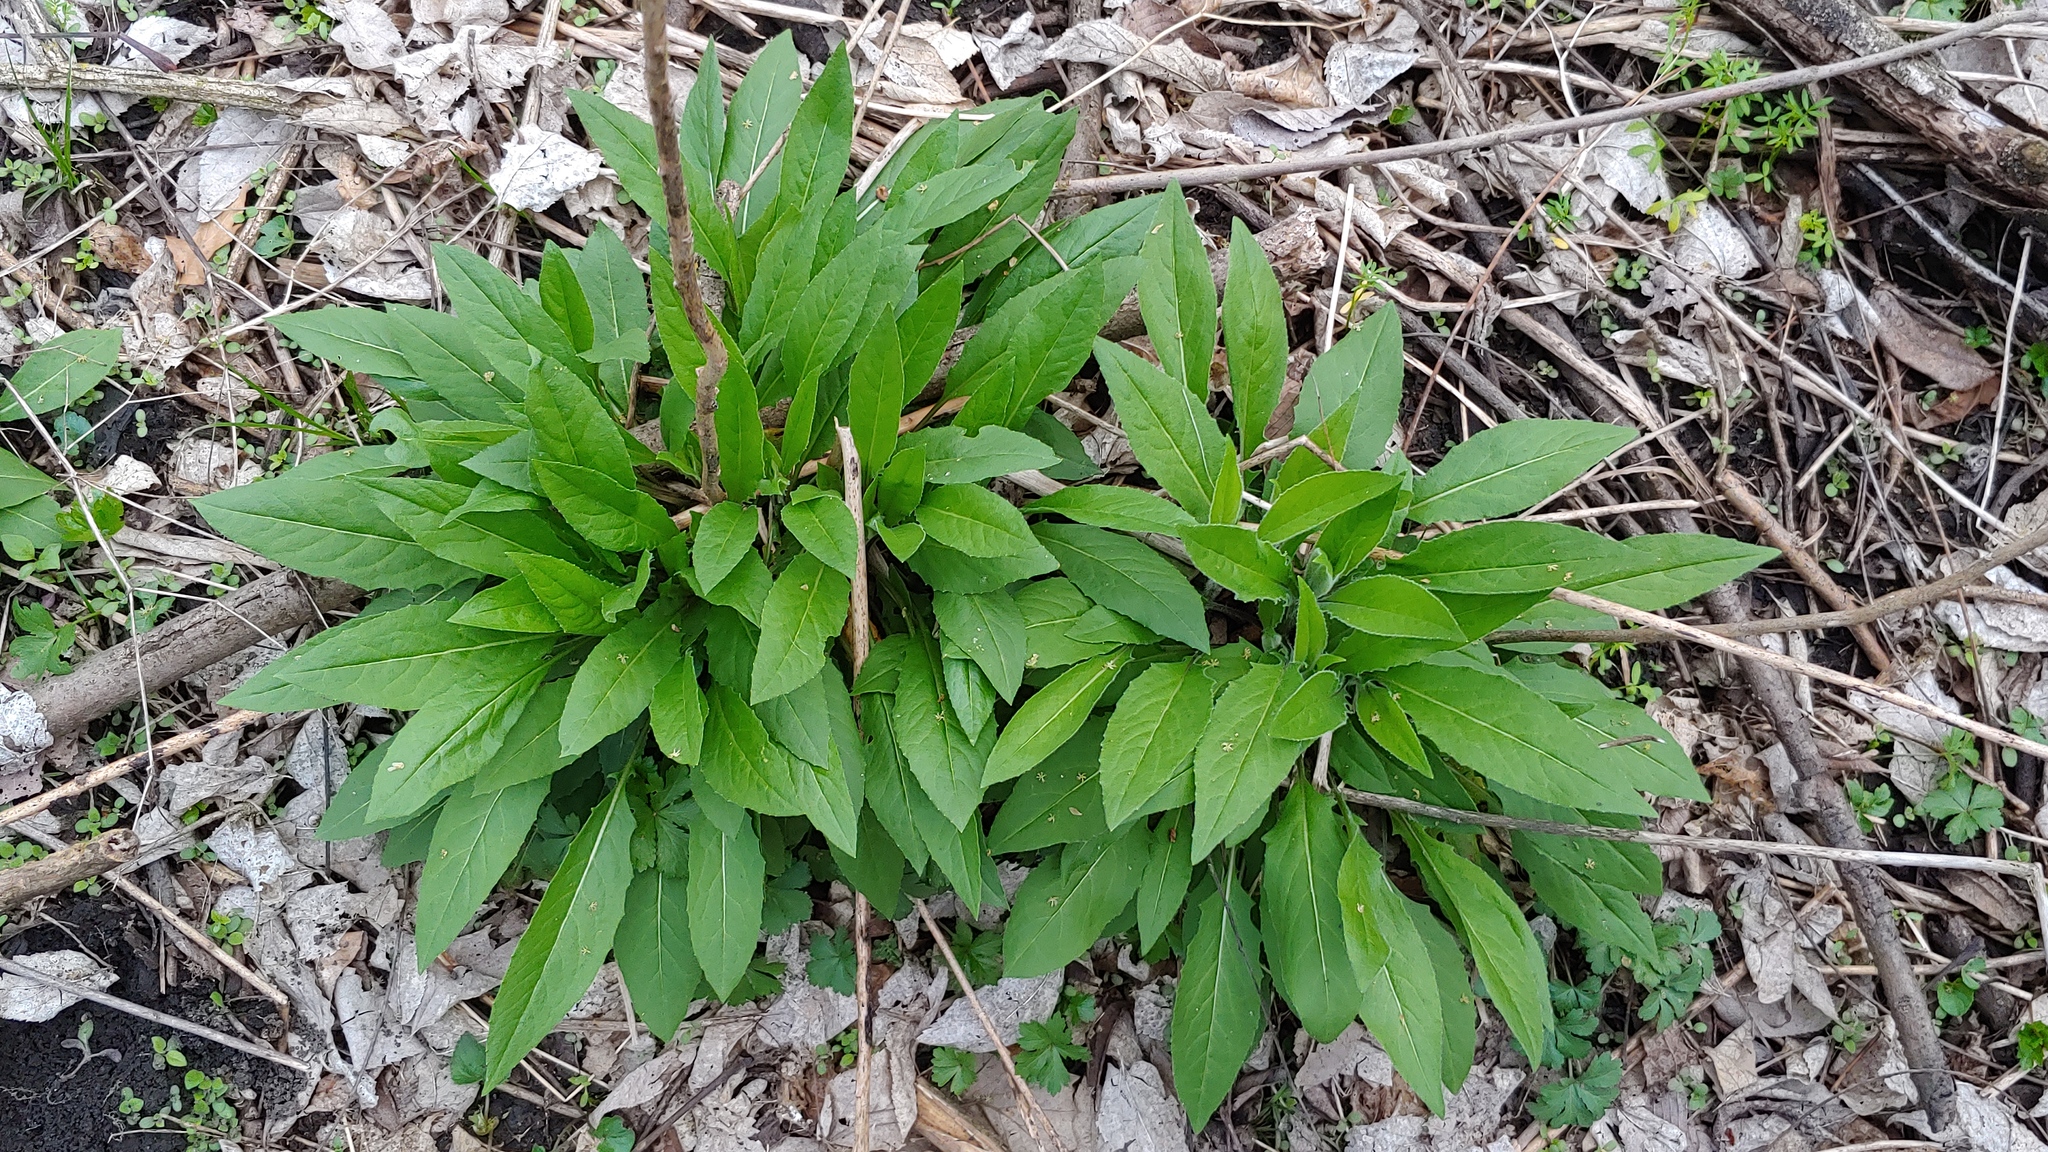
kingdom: Plantae
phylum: Tracheophyta
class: Magnoliopsida
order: Brassicales
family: Brassicaceae
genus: Hesperis
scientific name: Hesperis matronalis
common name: Dame's-violet
